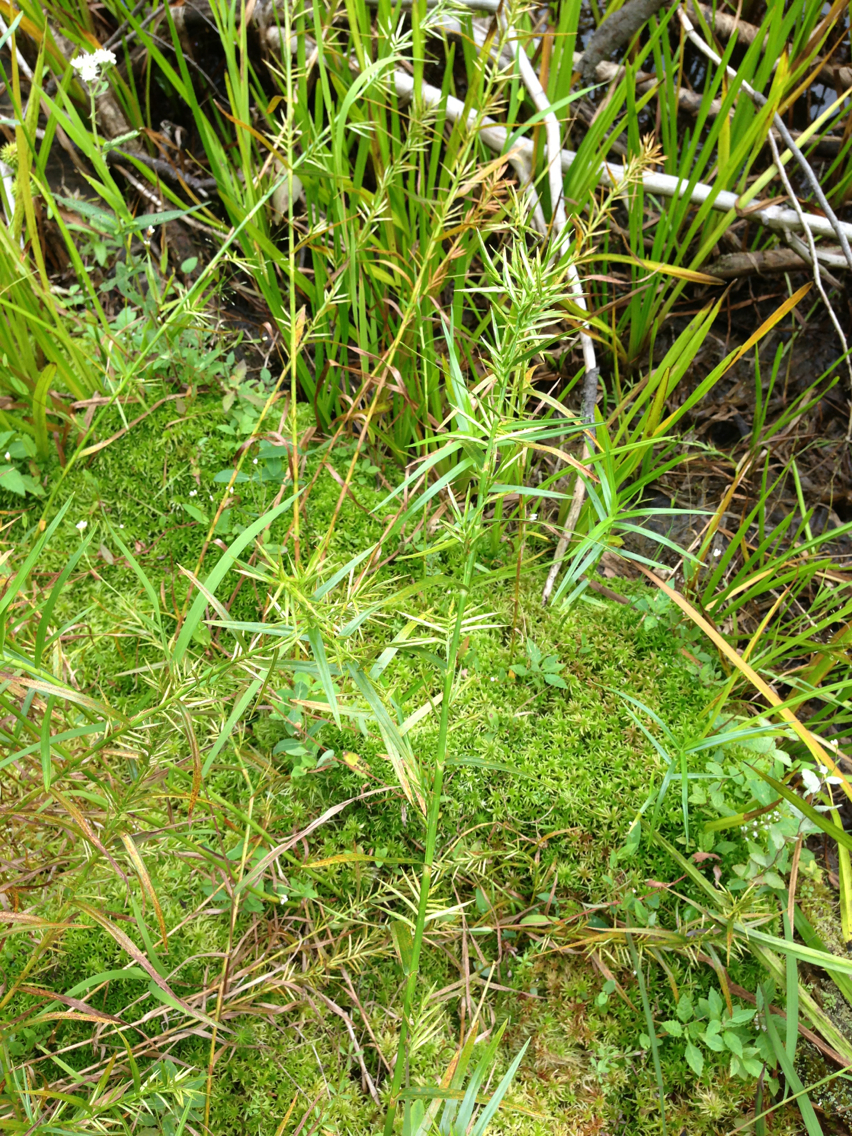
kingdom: Plantae
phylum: Tracheophyta
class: Liliopsida
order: Poales
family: Cyperaceae
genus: Dulichium
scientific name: Dulichium arundinaceum
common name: Three-way sedge
